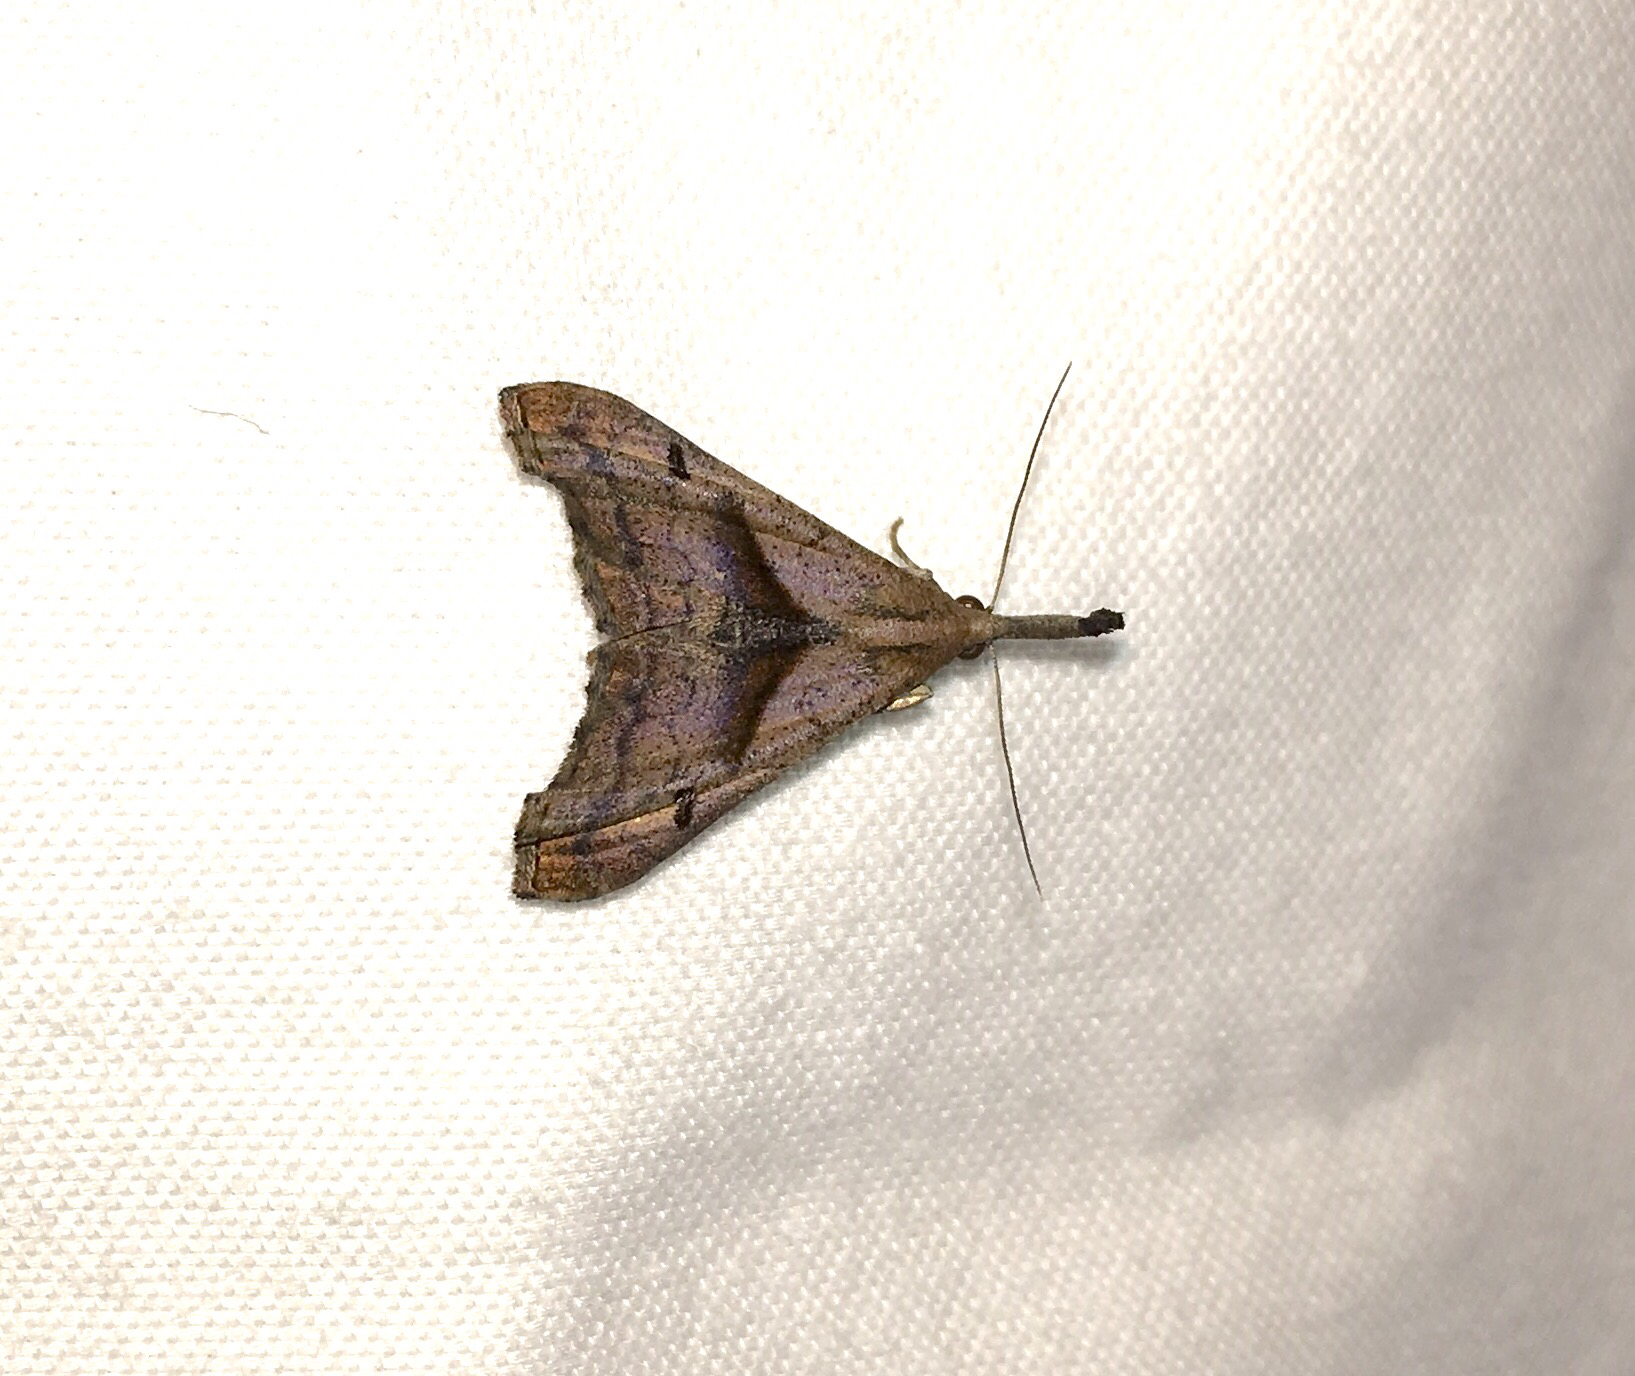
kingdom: Animalia
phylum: Arthropoda
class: Insecta
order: Lepidoptera
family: Erebidae
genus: Palthis
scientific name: Palthis angulalis
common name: Dark-spotted palthis moth
